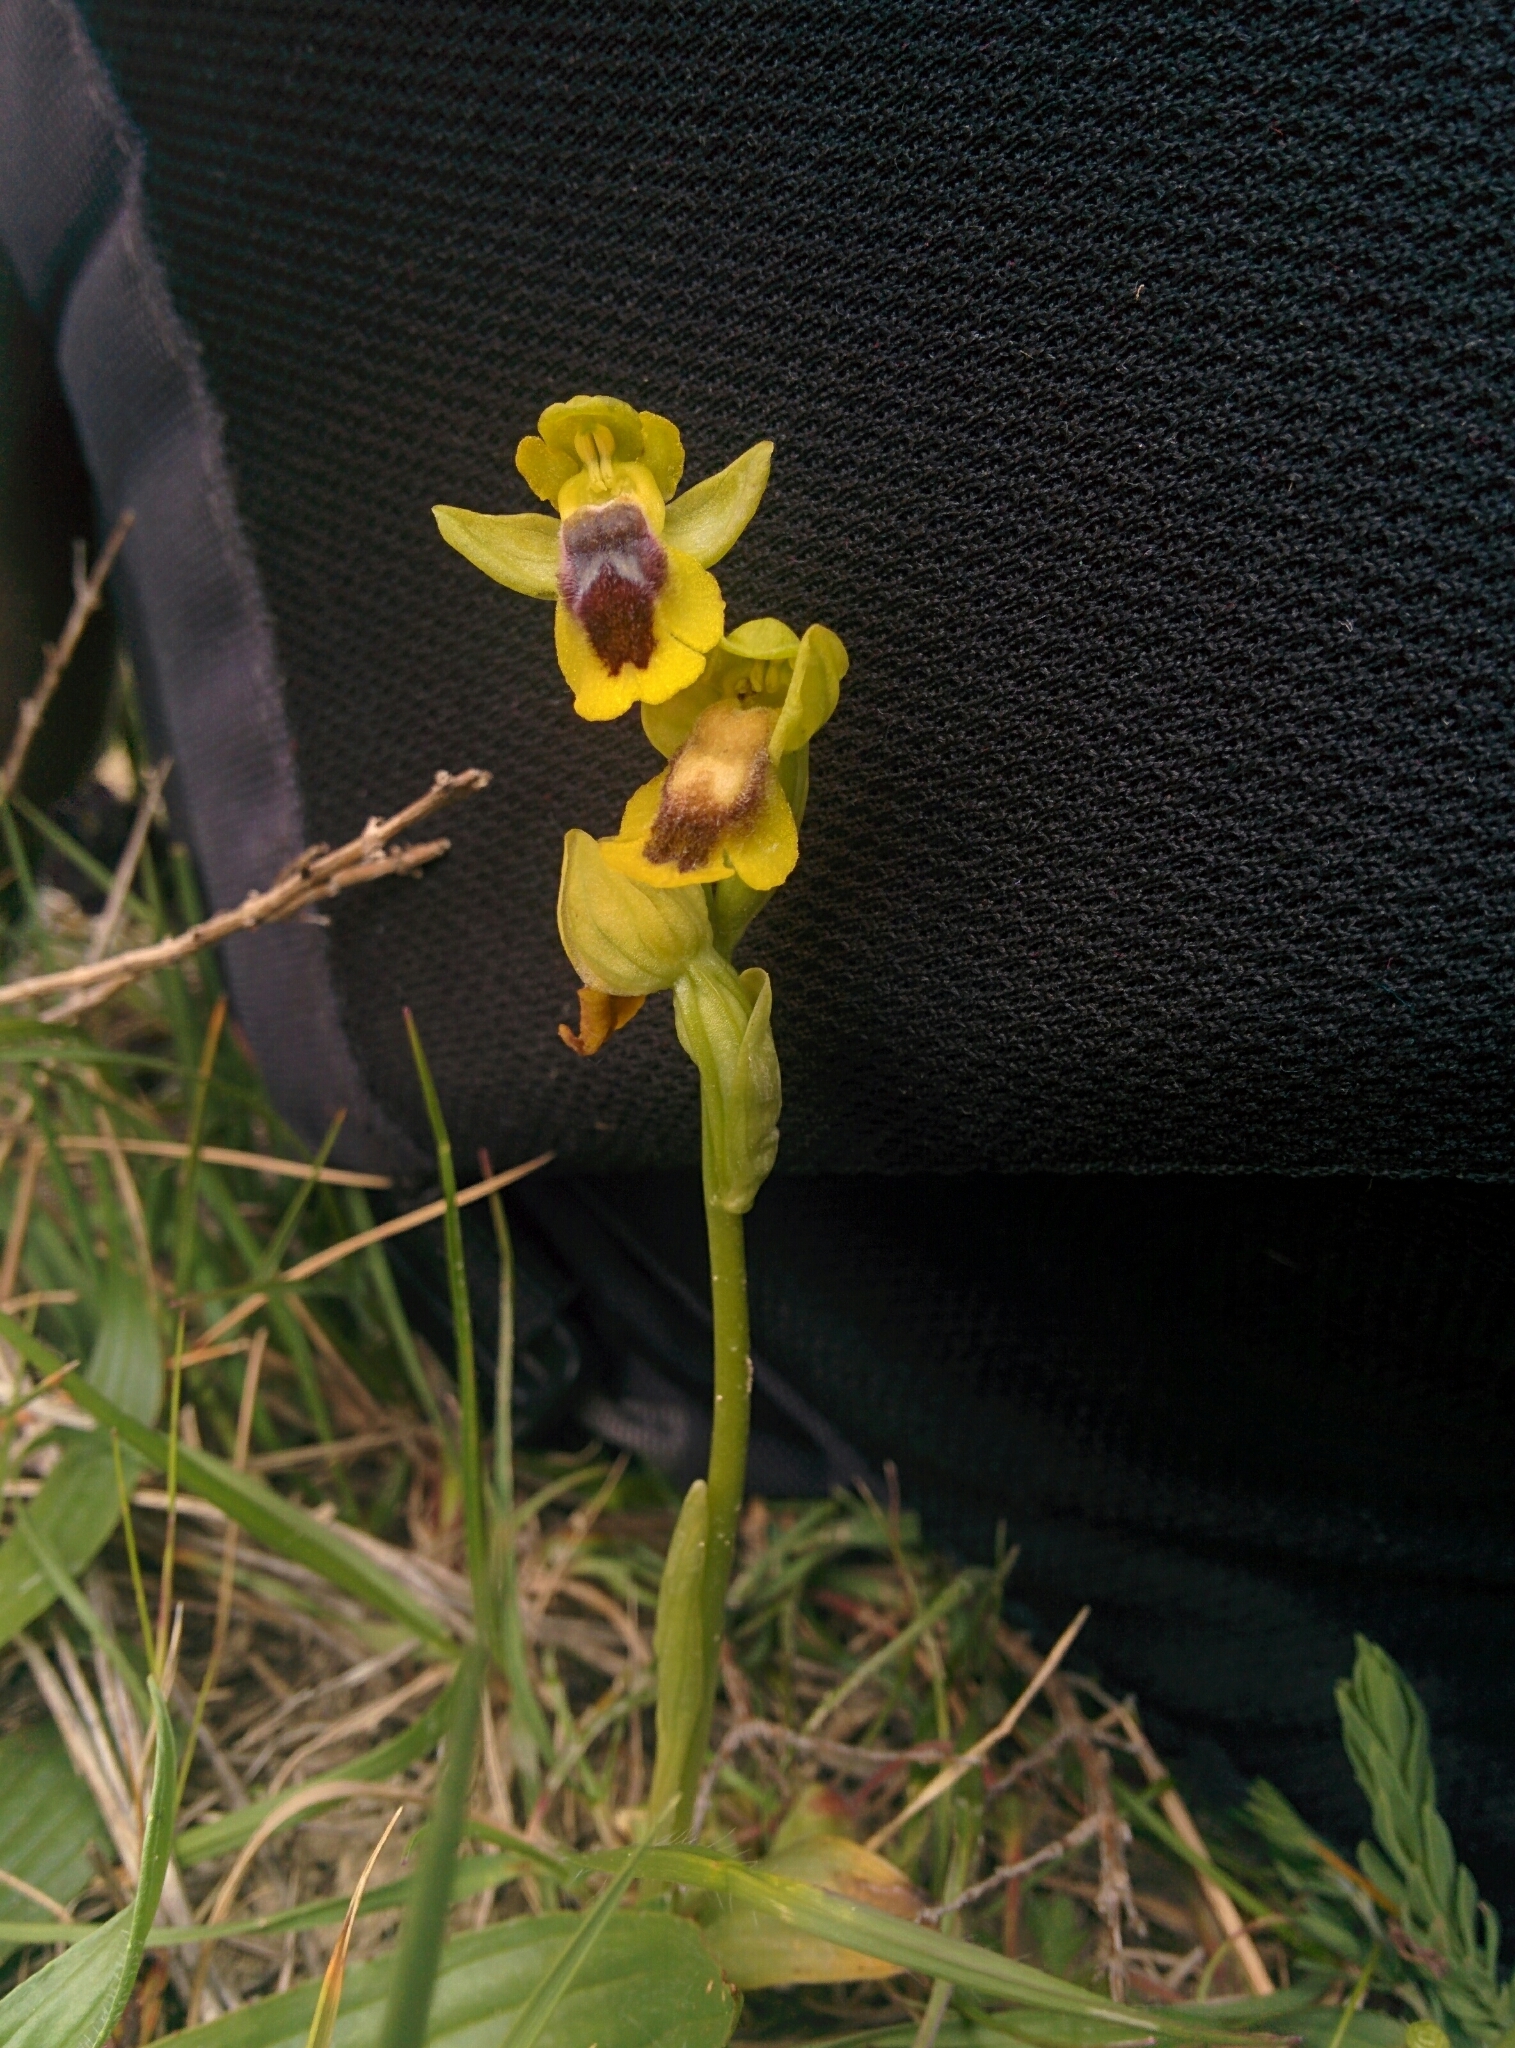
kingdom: Plantae
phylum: Tracheophyta
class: Liliopsida
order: Asparagales
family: Orchidaceae
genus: Ophrys
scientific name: Ophrys lutea
